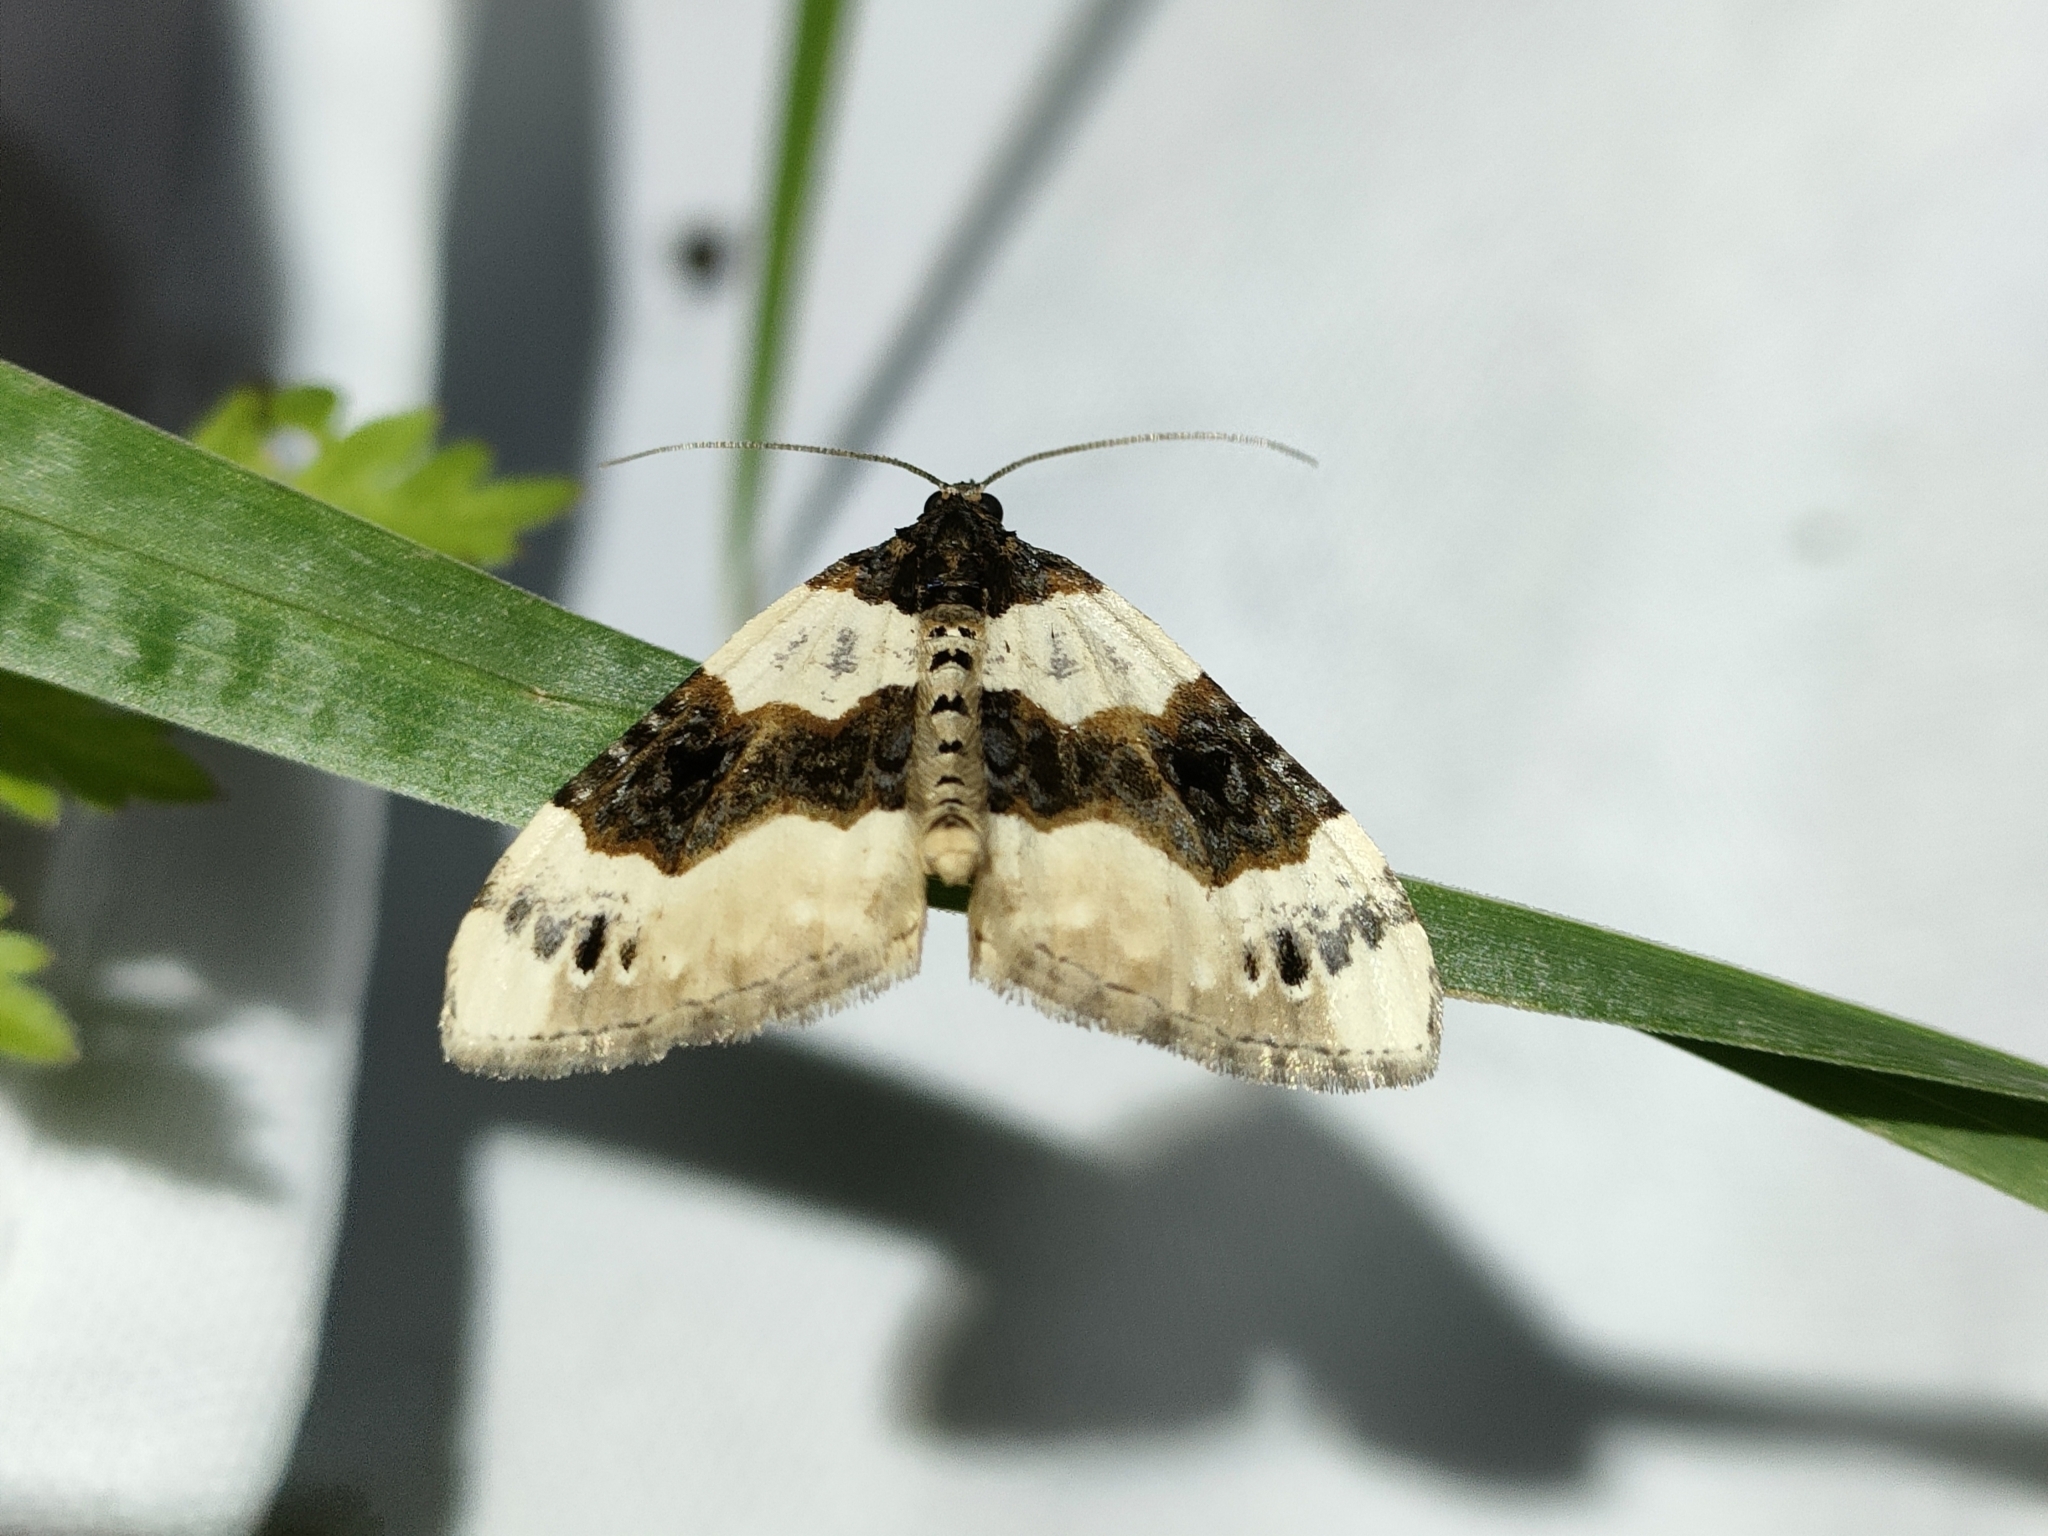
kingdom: Animalia
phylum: Arthropoda
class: Insecta
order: Lepidoptera
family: Geometridae
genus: Cosmorhoe
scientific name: Cosmorhoe ocellata
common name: Purple bar
